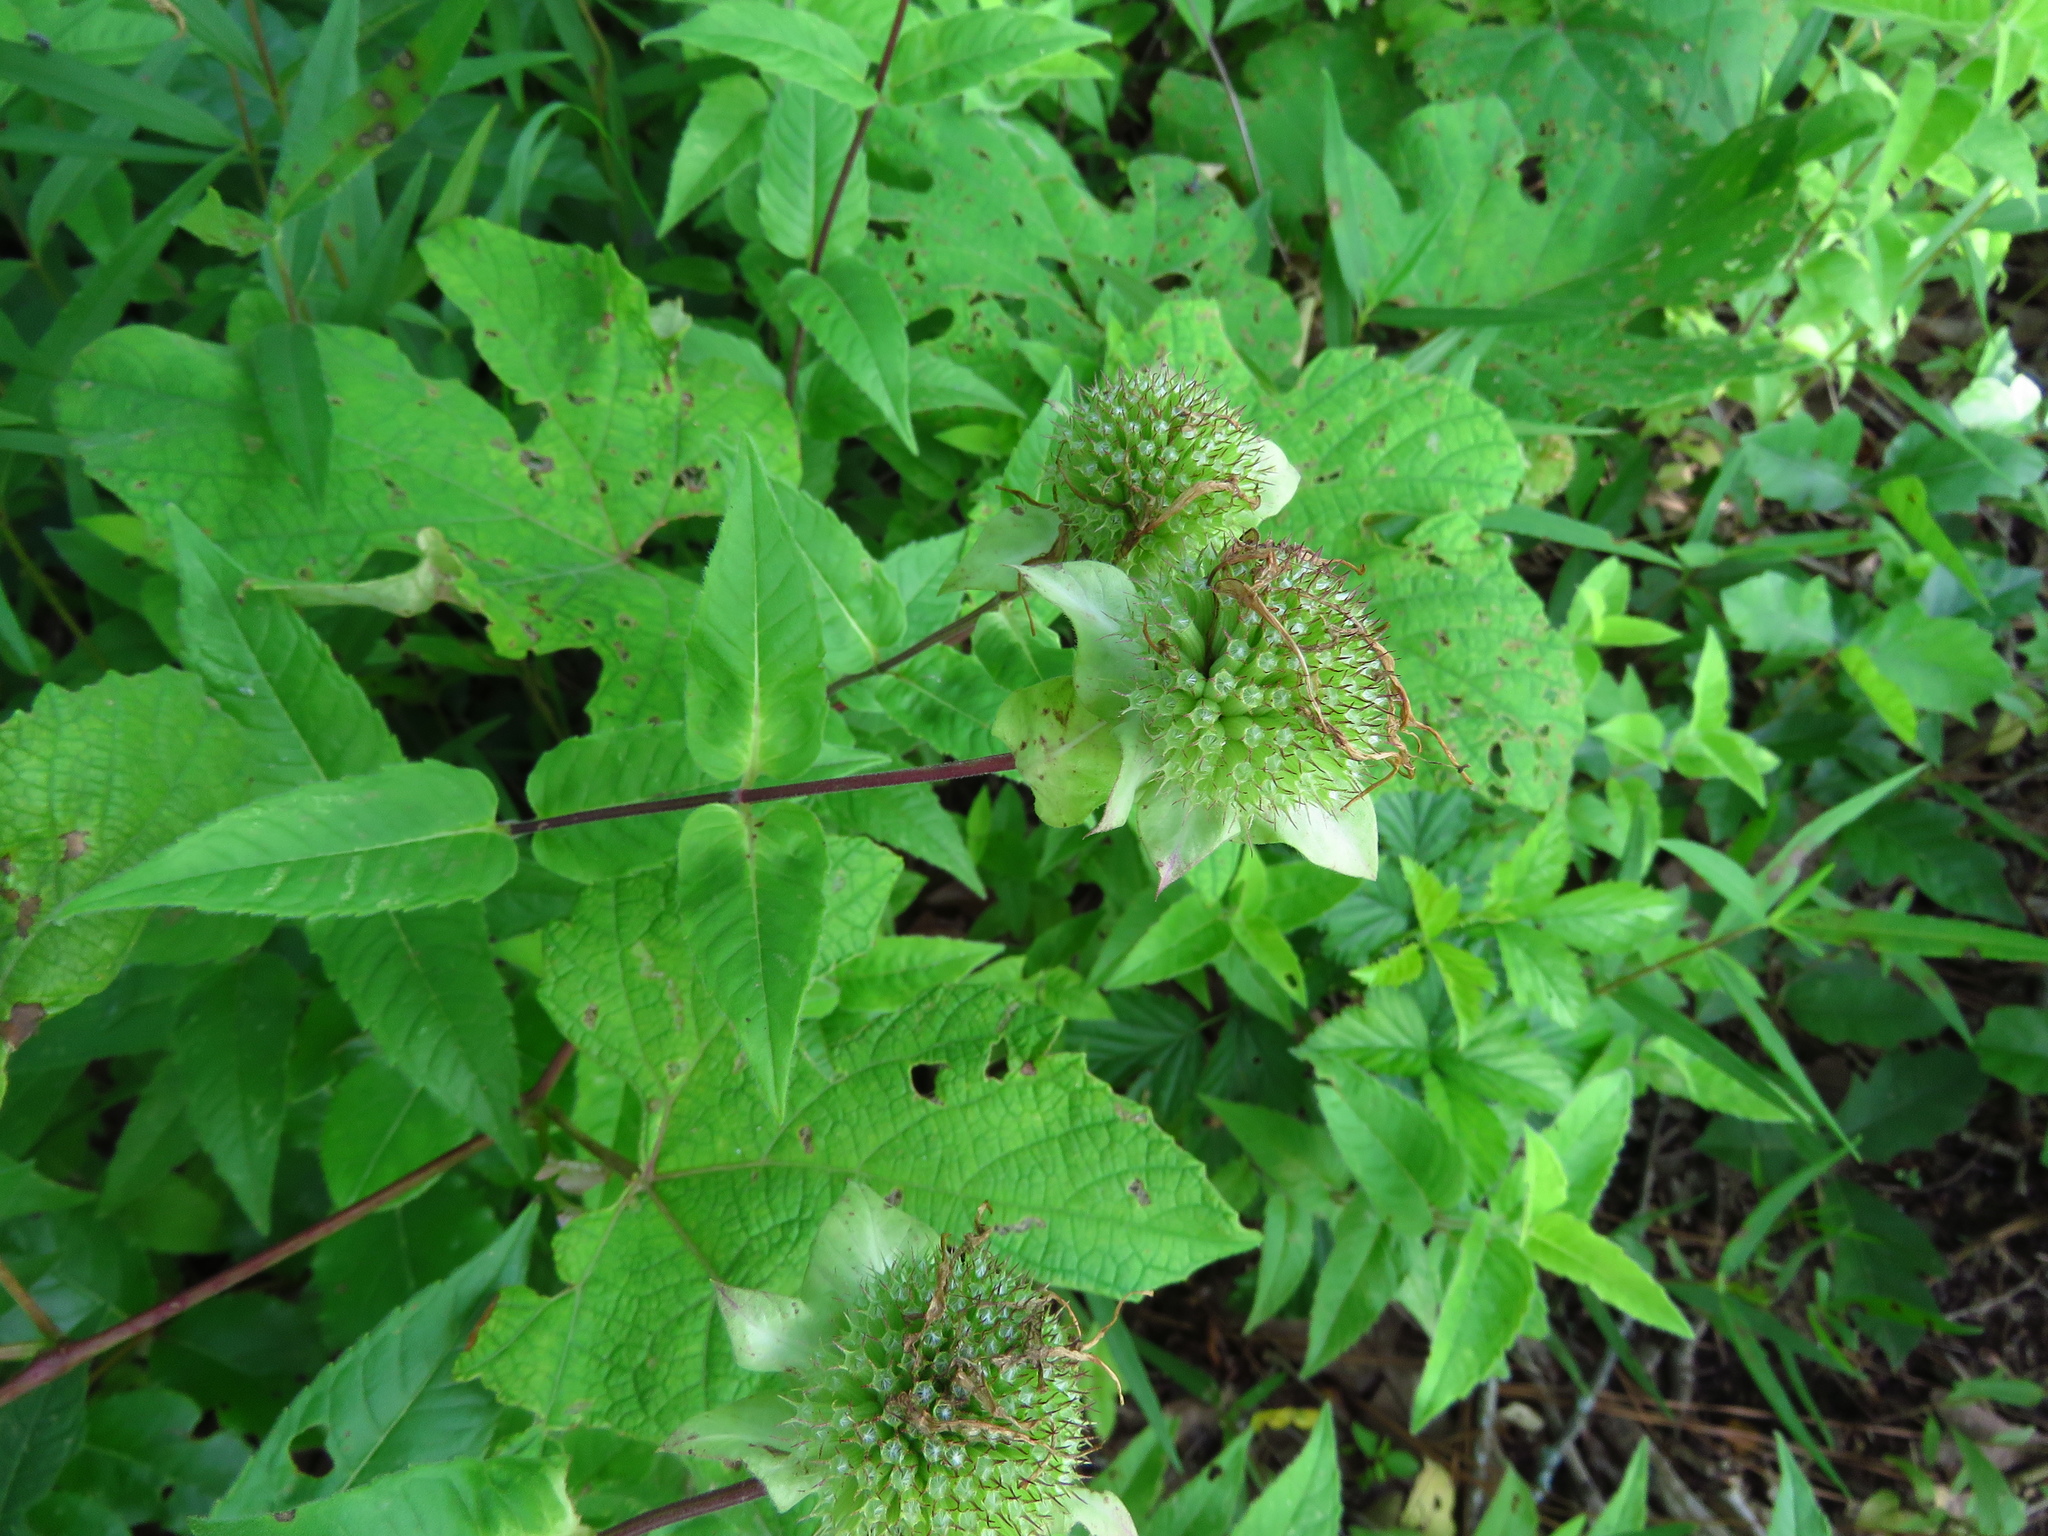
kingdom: Plantae
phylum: Tracheophyta
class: Magnoliopsida
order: Lamiales
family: Lamiaceae
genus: Monarda
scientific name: Monarda luteola
